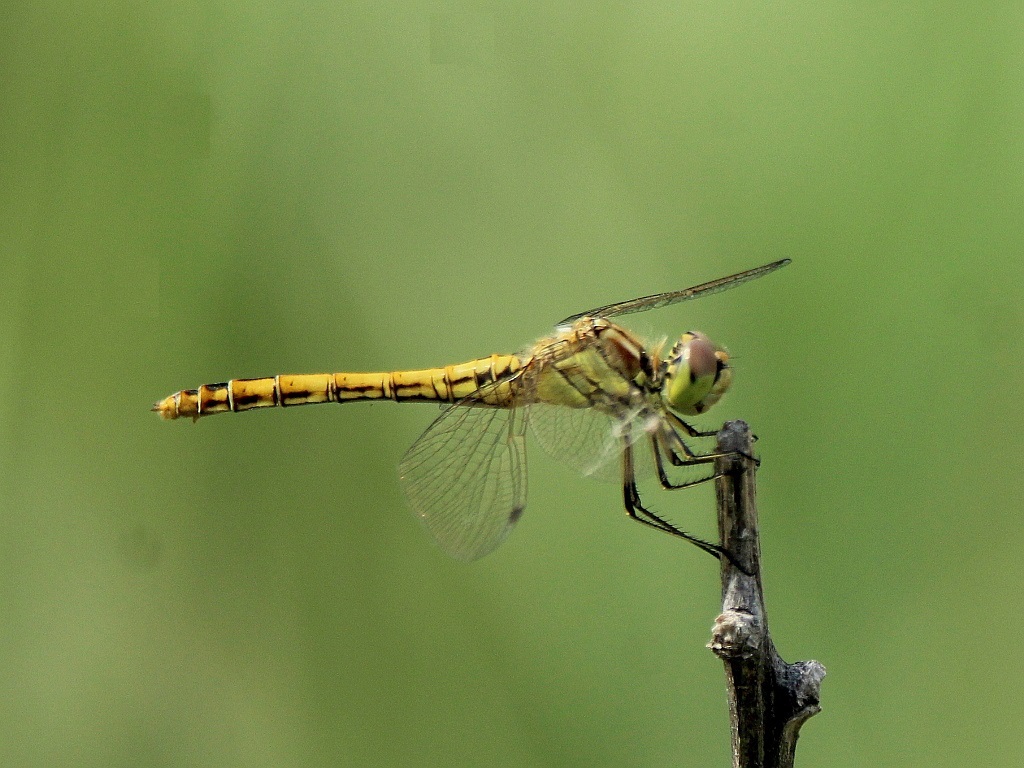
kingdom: Animalia
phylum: Arthropoda
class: Insecta
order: Odonata
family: Libellulidae
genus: Sympetrum
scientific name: Sympetrum vulgatum
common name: Vagrant darter
